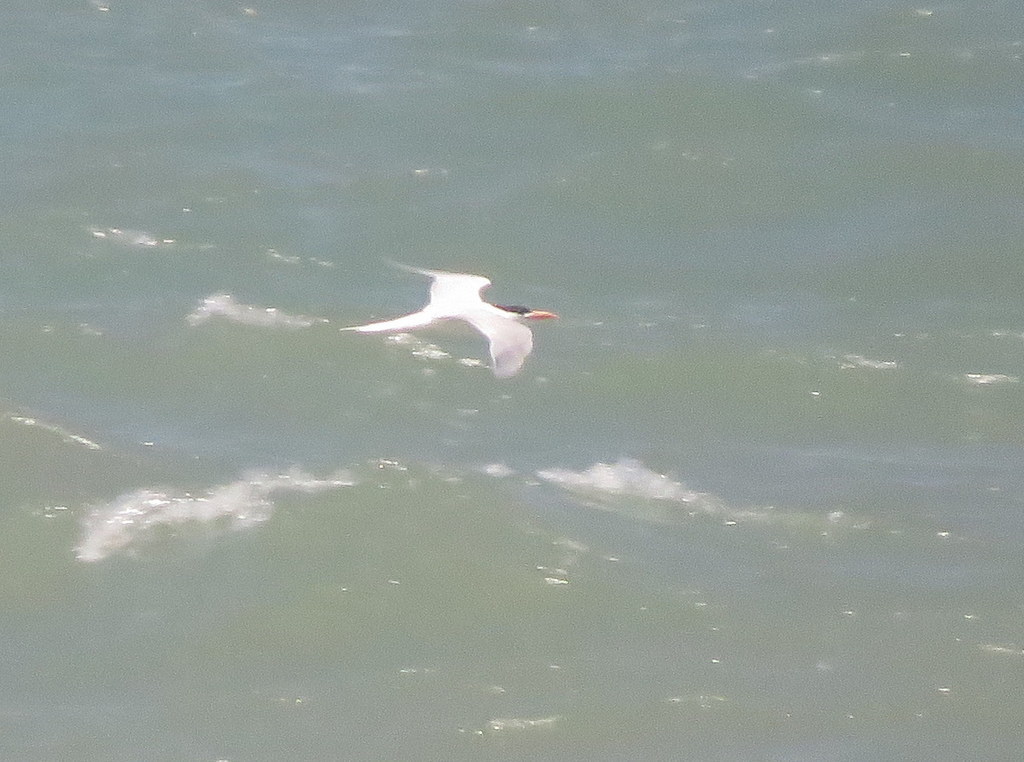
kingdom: Animalia
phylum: Chordata
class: Aves
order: Charadriiformes
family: Laridae
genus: Thalasseus
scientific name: Thalasseus maximus
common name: Royal tern
